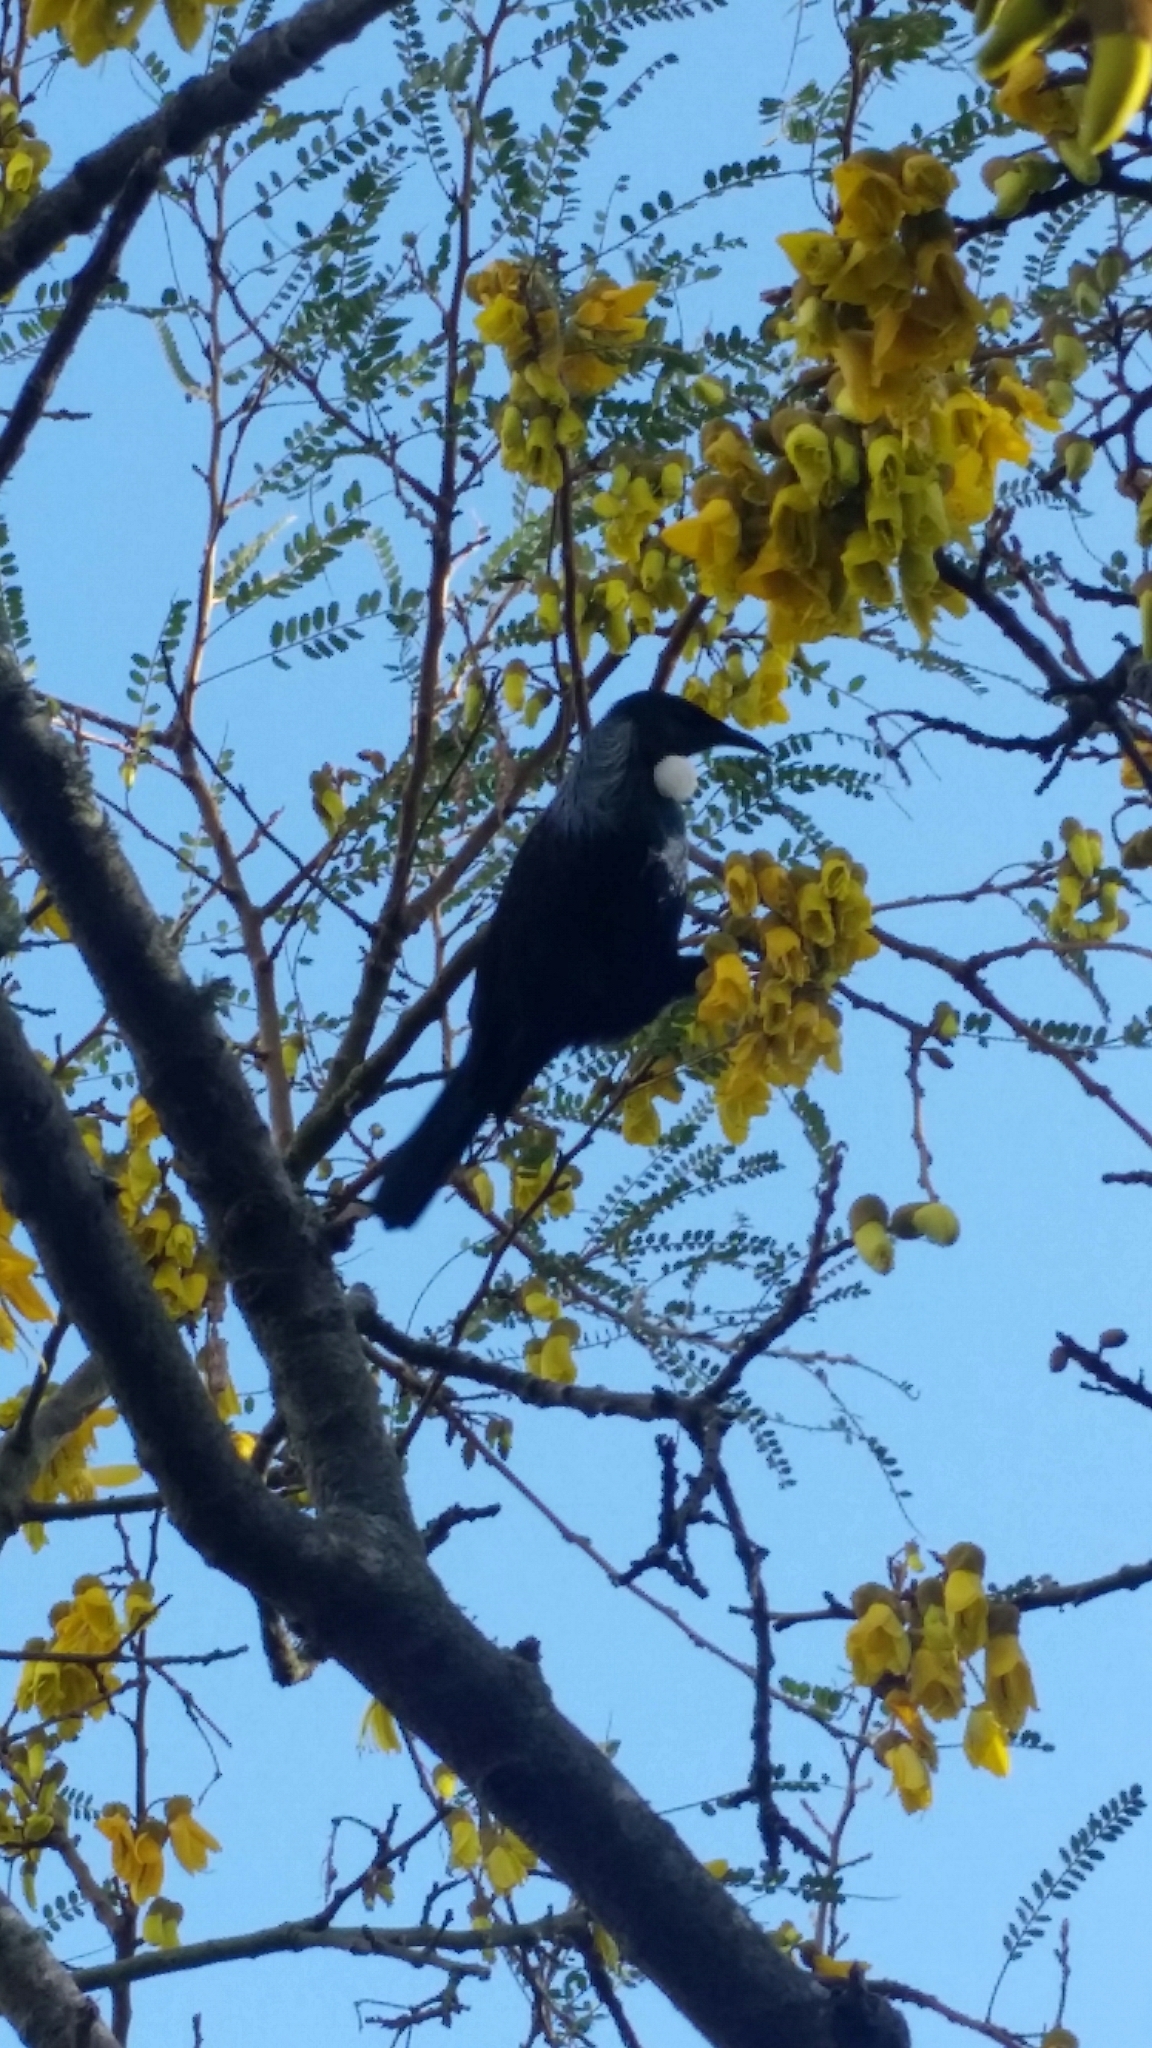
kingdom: Animalia
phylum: Chordata
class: Aves
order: Passeriformes
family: Meliphagidae
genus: Prosthemadera
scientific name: Prosthemadera novaeseelandiae
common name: Tui
